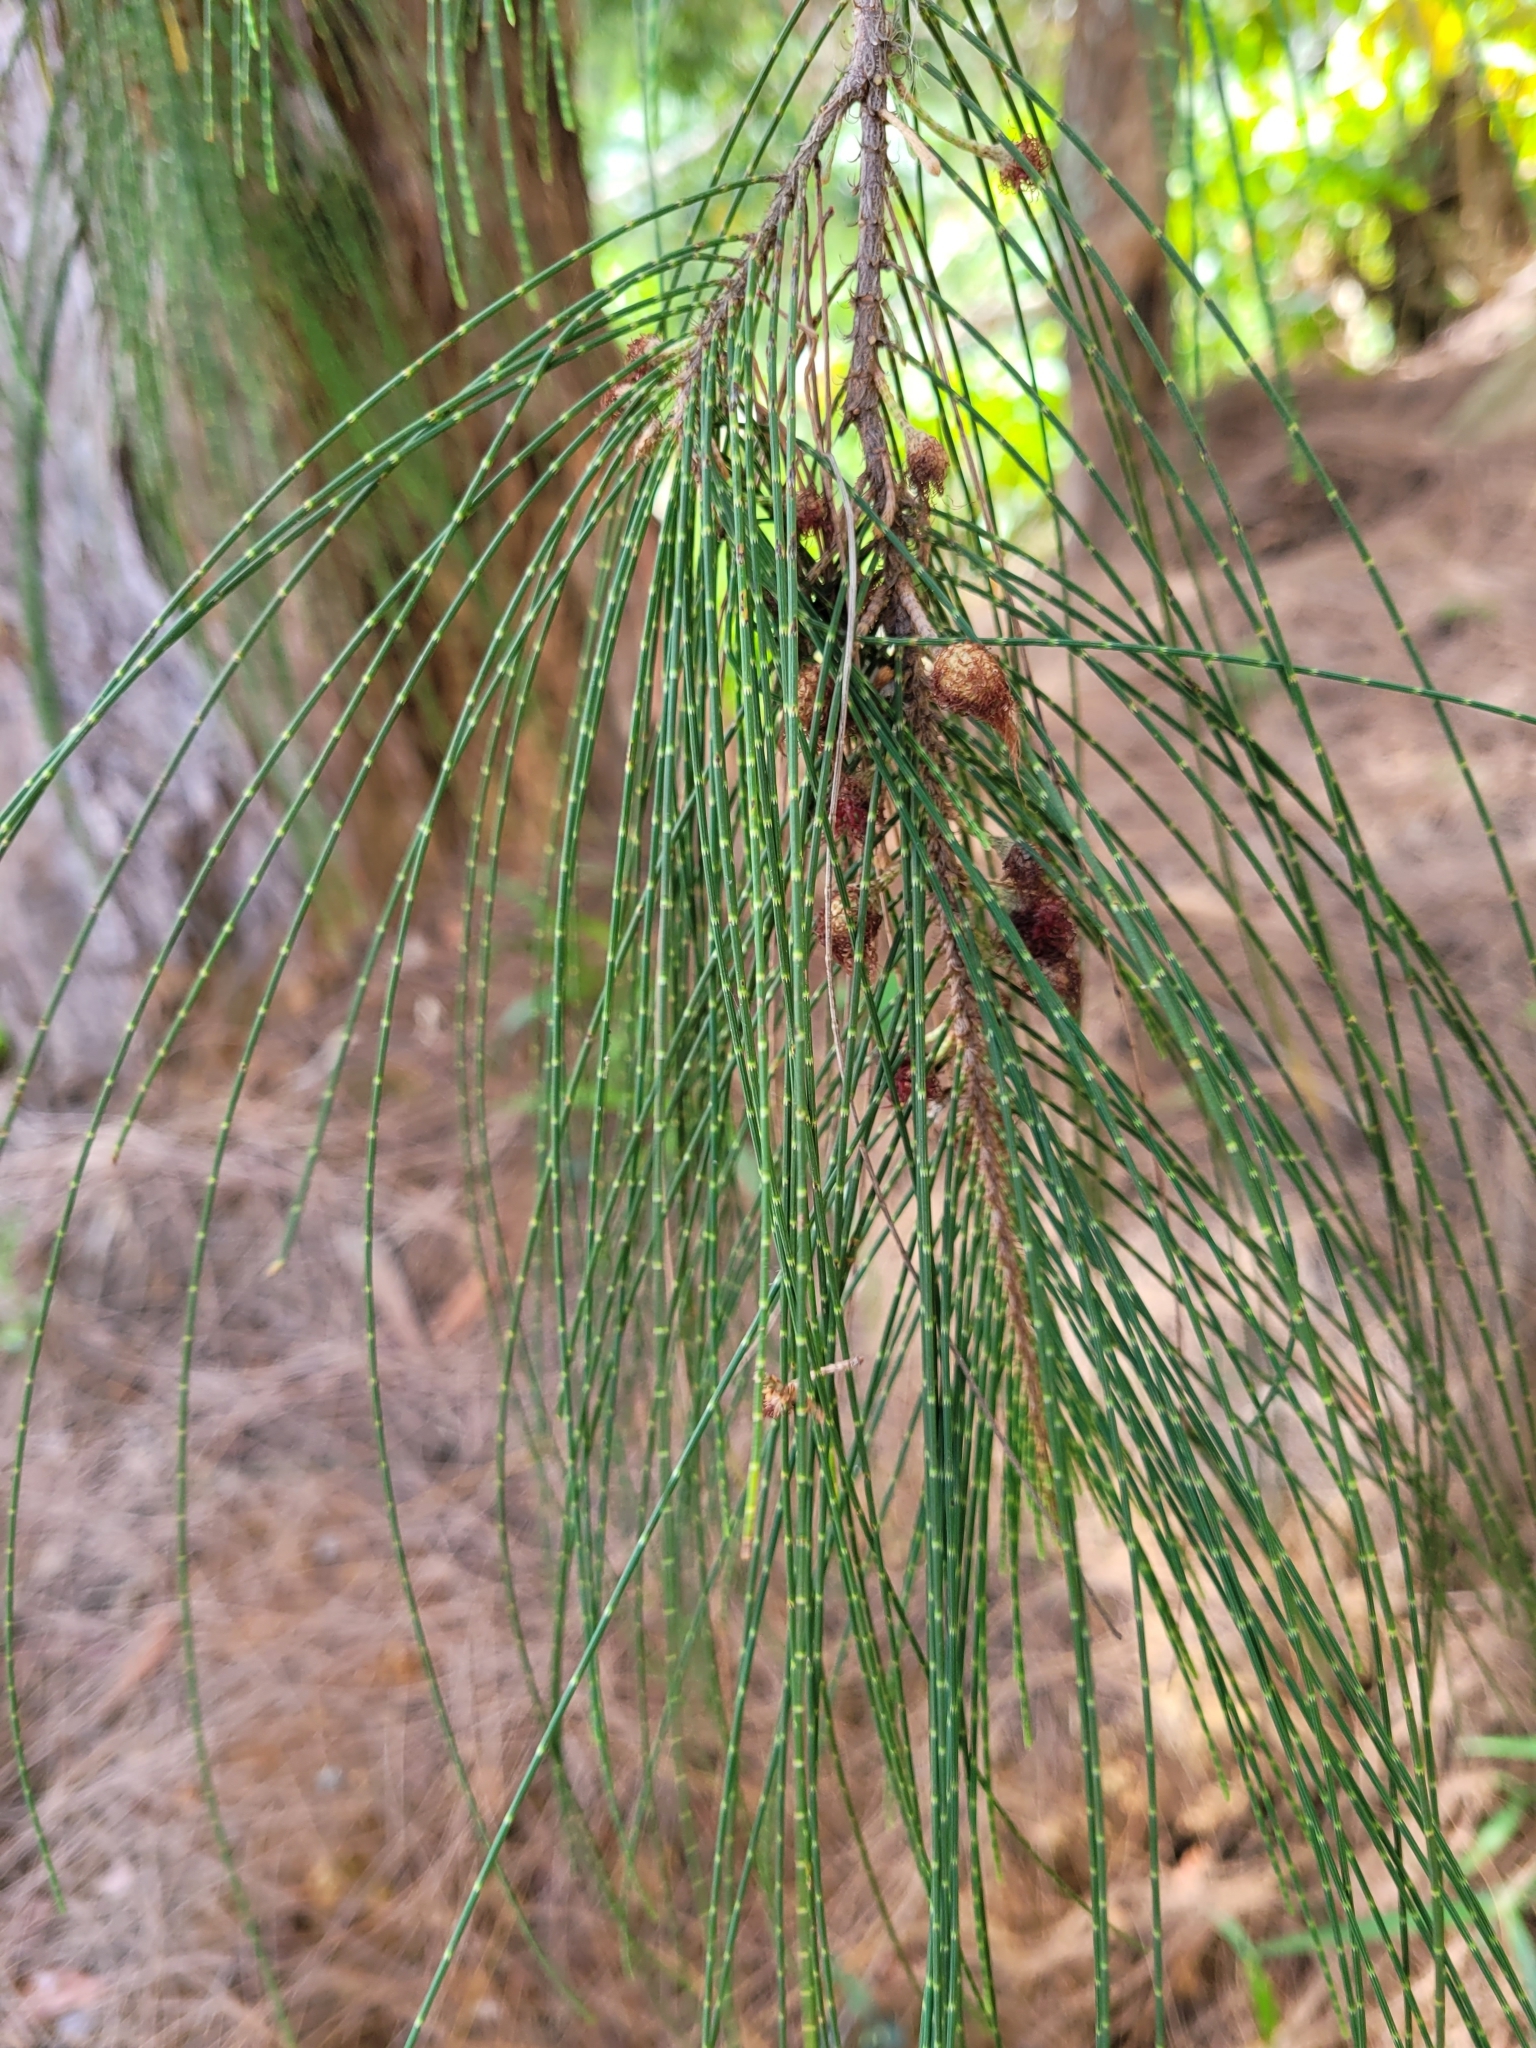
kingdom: Plantae
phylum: Tracheophyta
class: Magnoliopsida
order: Fagales
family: Casuarinaceae
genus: Casuarina
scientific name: Casuarina equisetifolia
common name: Beach sheoak
